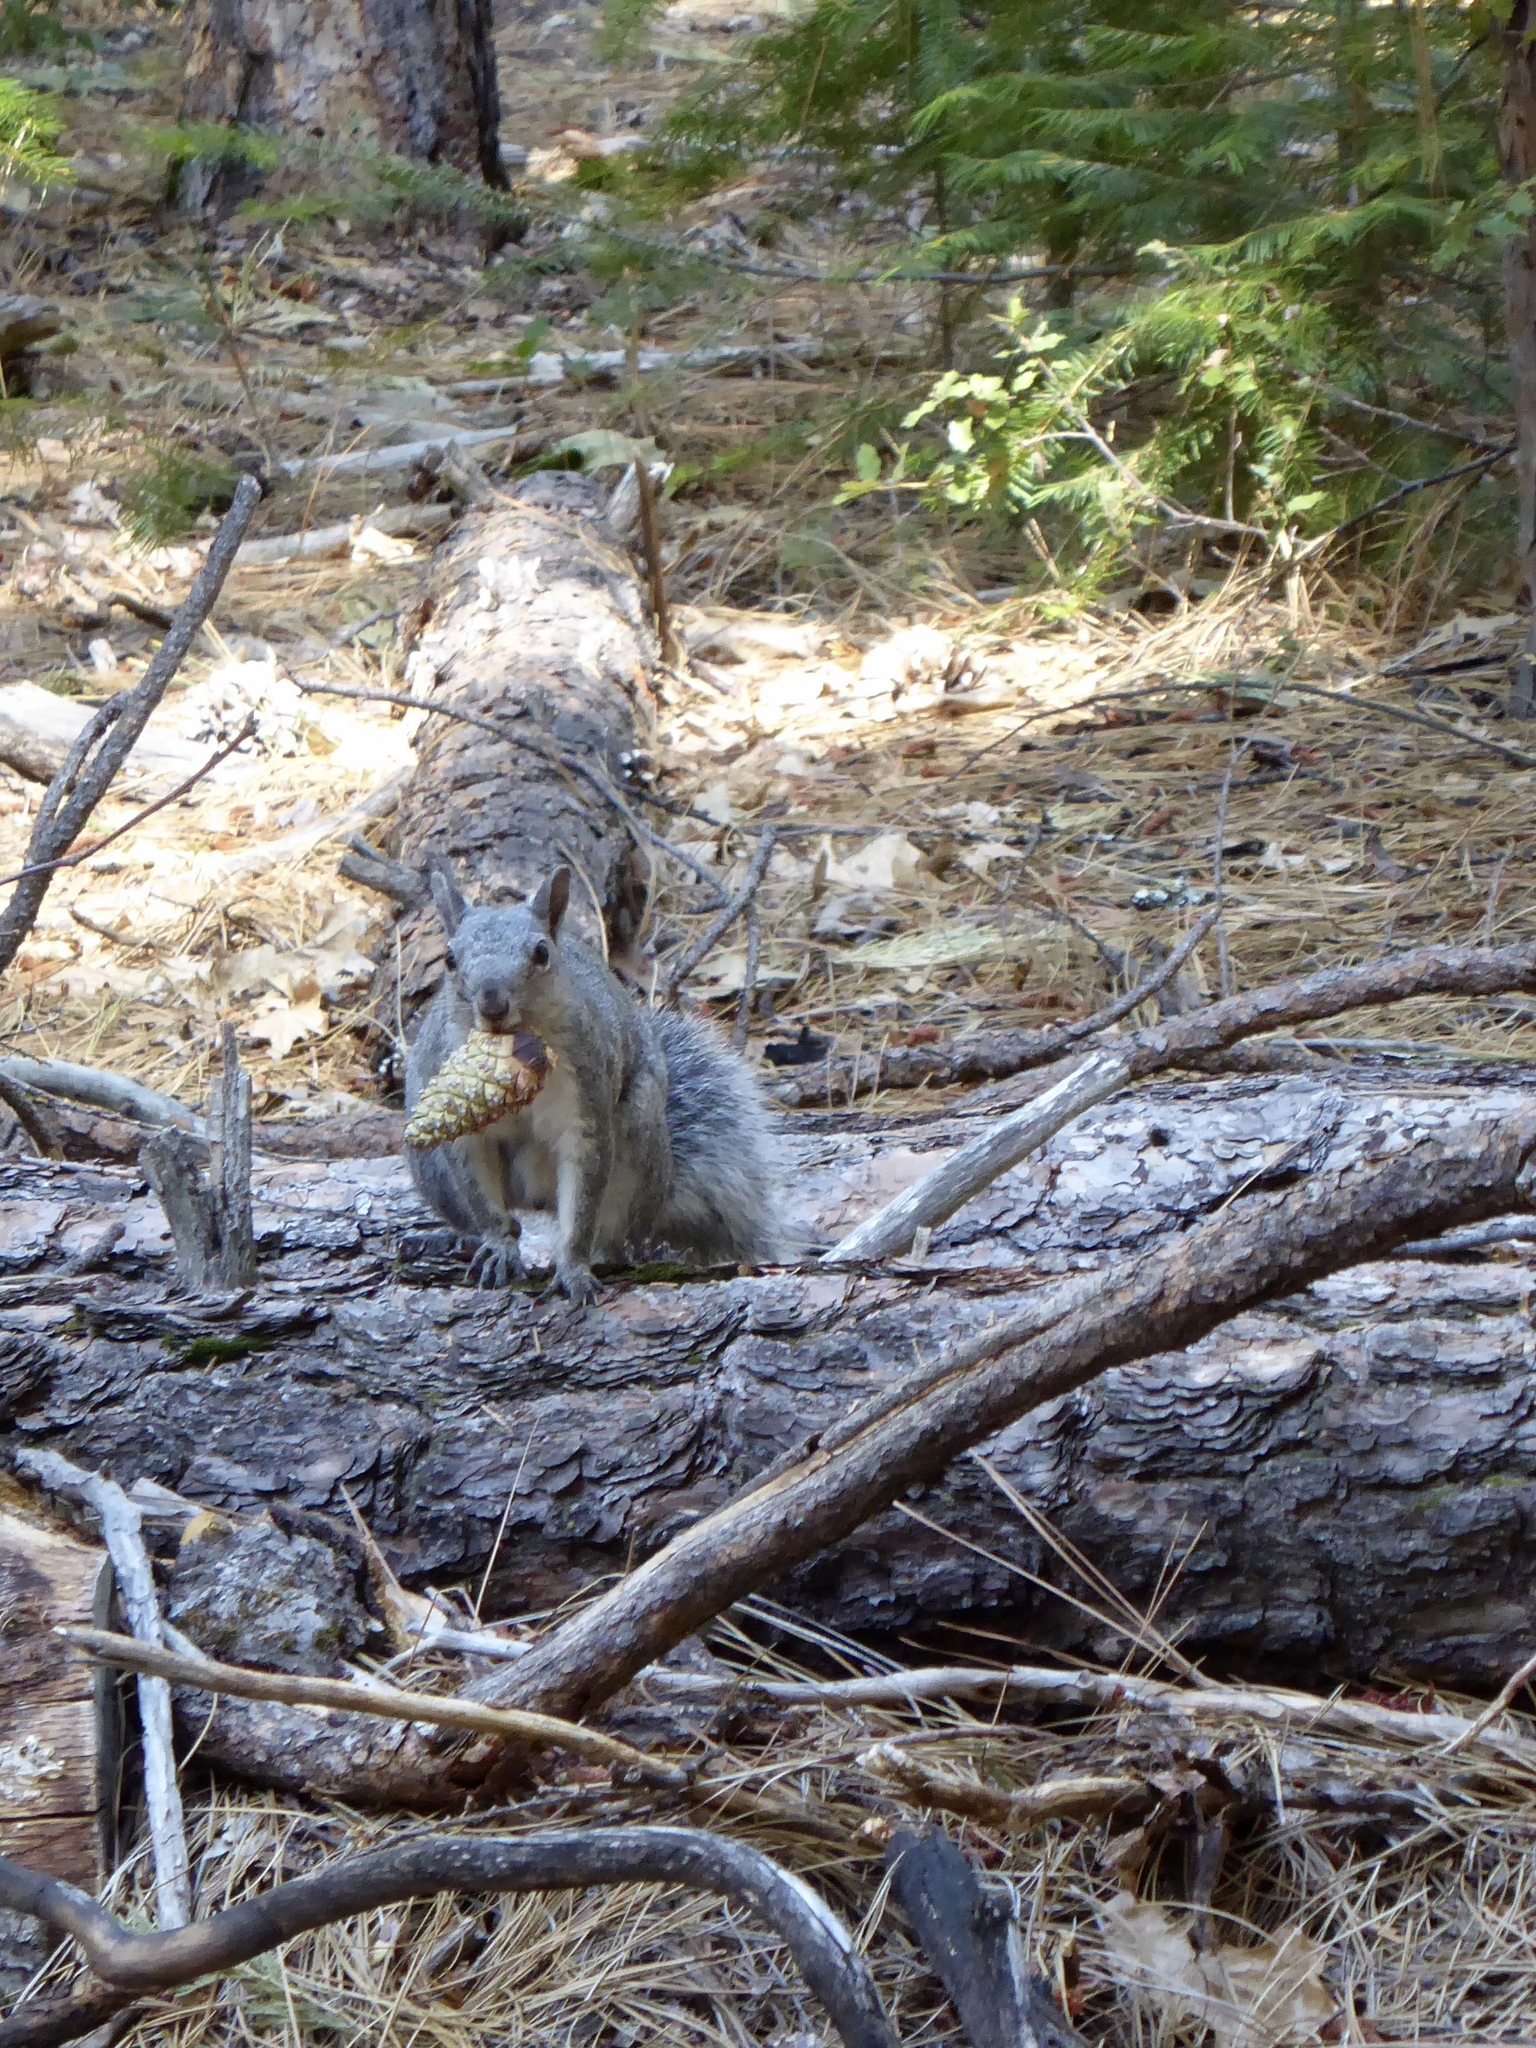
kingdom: Animalia
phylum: Chordata
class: Mammalia
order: Rodentia
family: Sciuridae
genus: Sciurus
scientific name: Sciurus griseus
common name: Western gray squirrel
